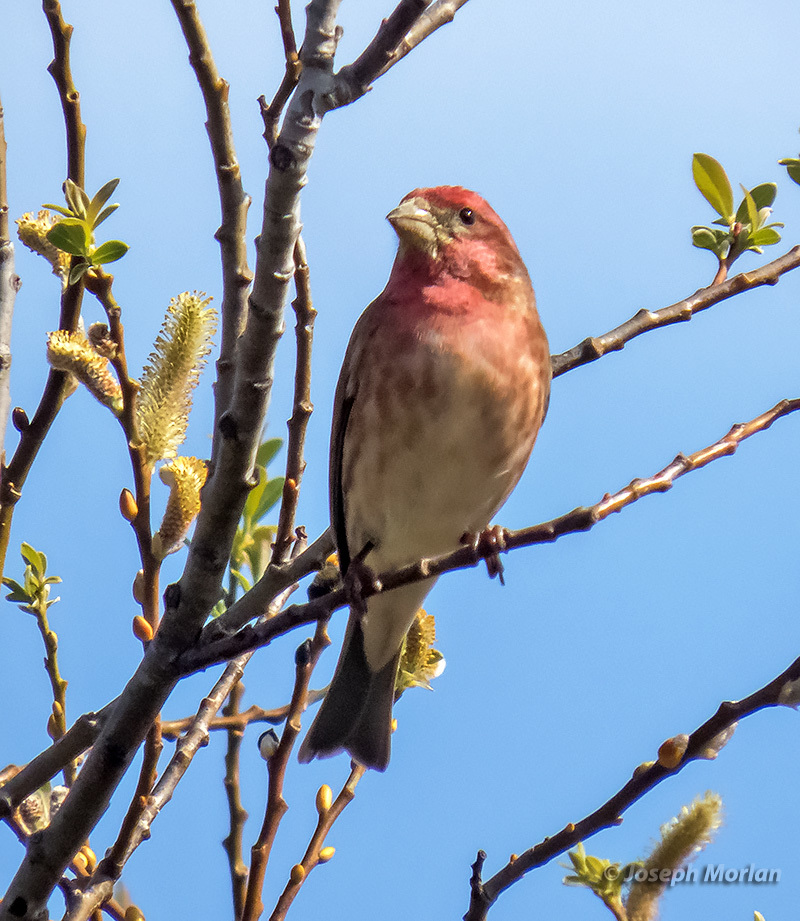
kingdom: Animalia
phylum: Chordata
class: Aves
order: Passeriformes
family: Fringillidae
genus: Haemorhous
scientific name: Haemorhous purpureus
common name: Purple finch
